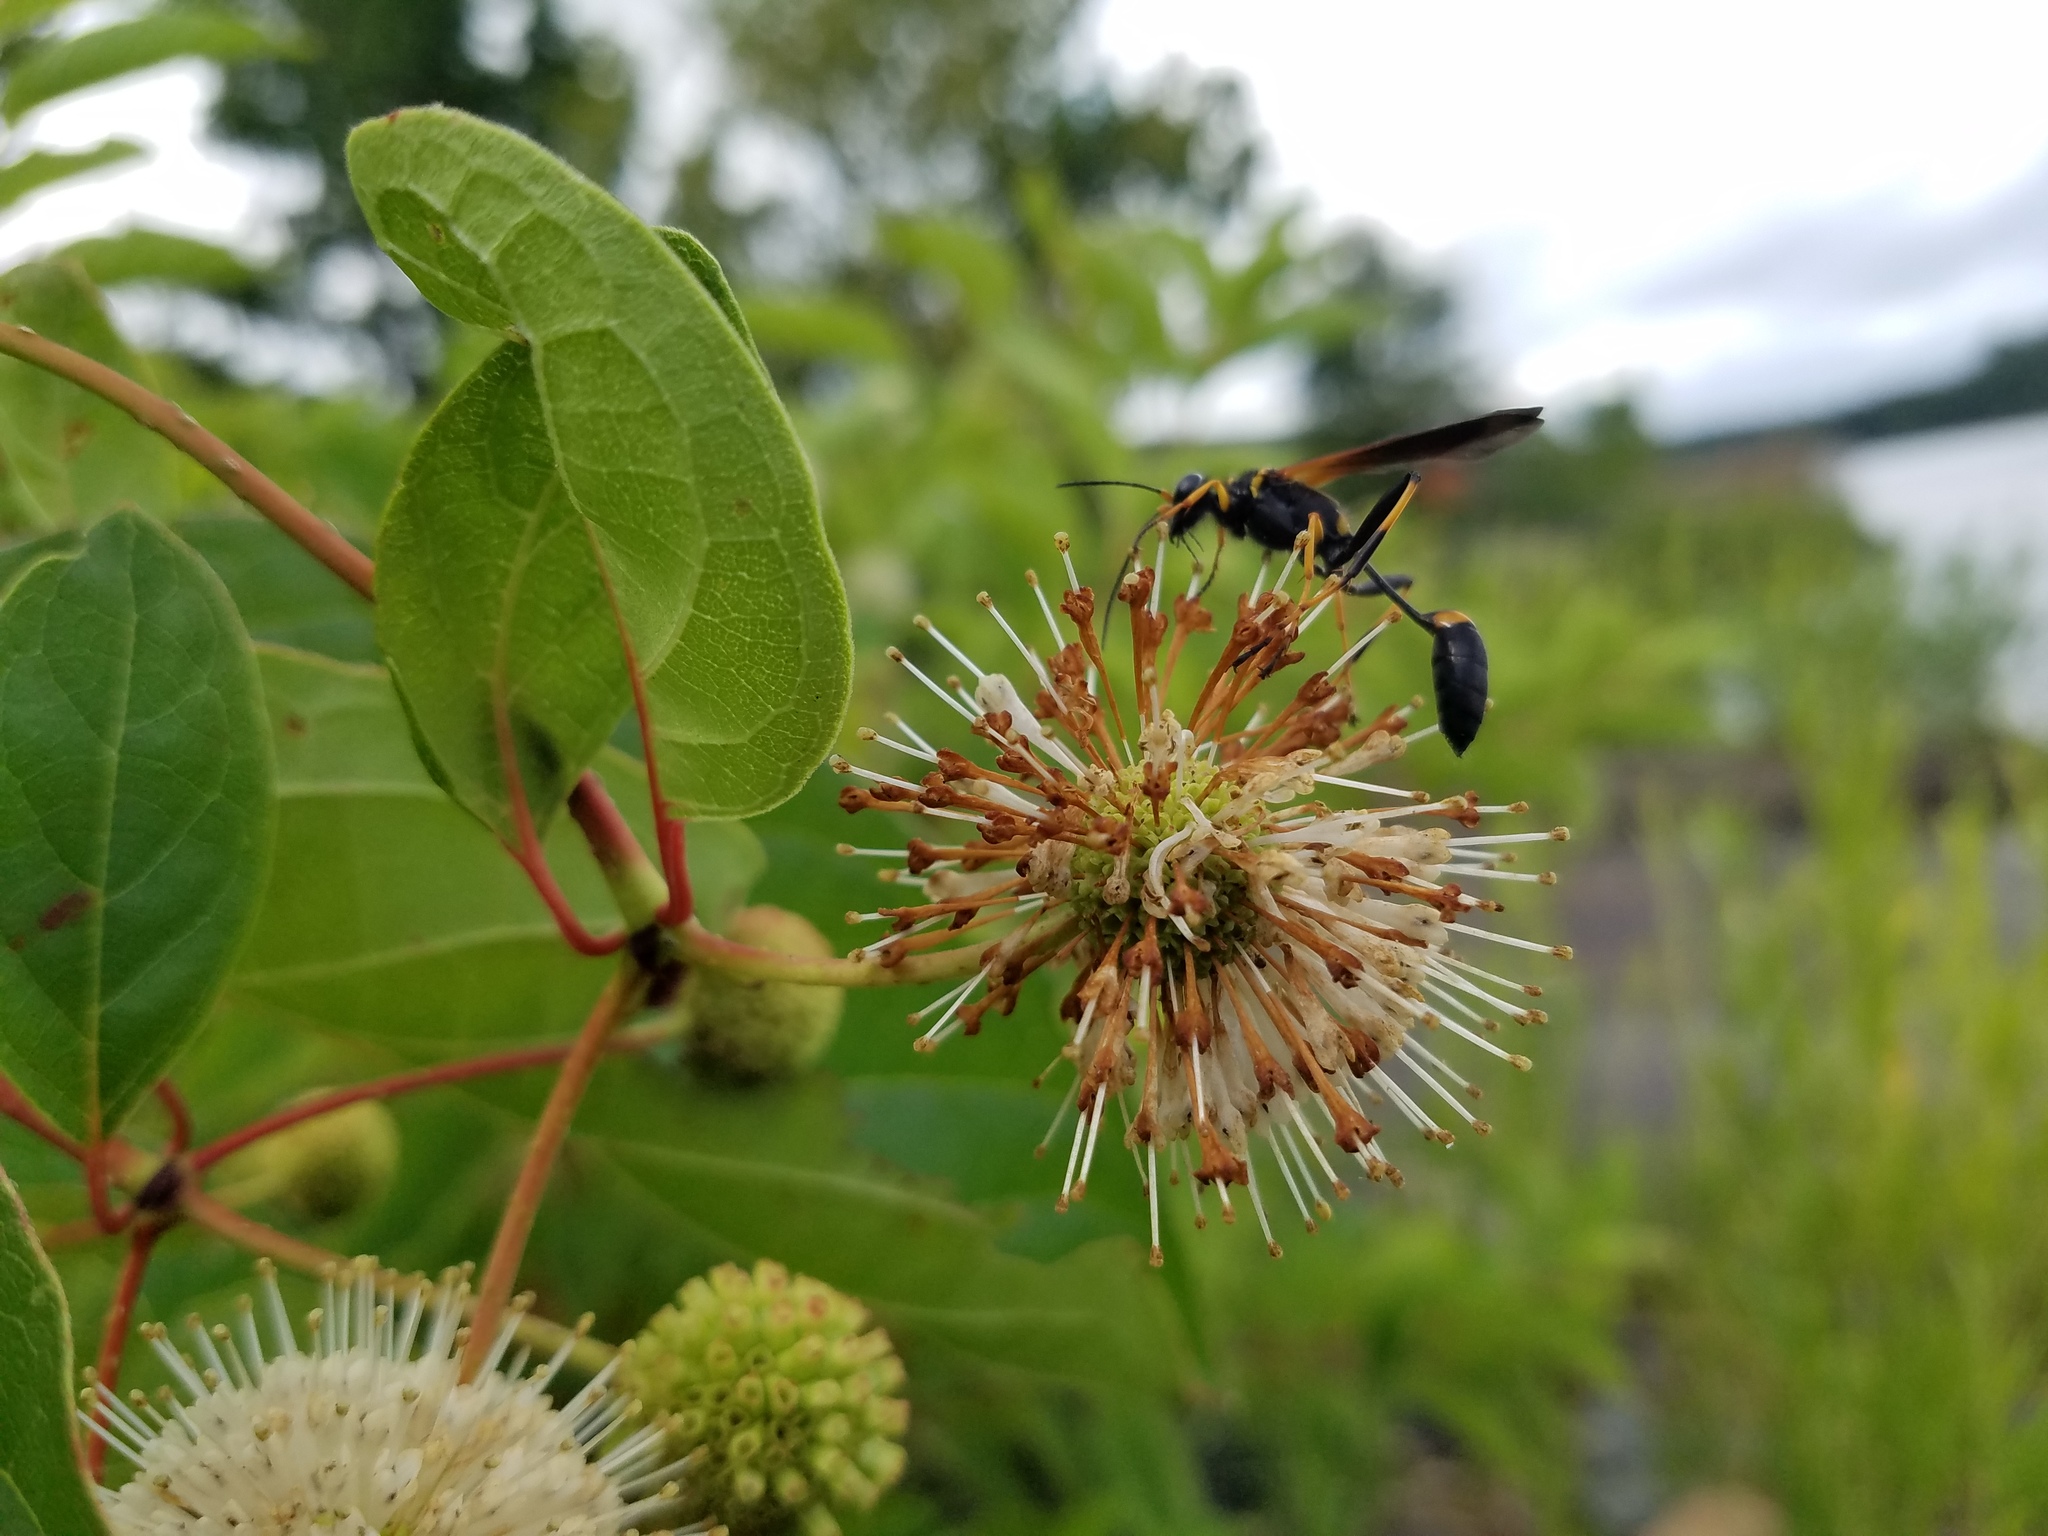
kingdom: Animalia
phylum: Arthropoda
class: Insecta
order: Hymenoptera
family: Sphecidae
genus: Sceliphron
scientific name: Sceliphron caementarium
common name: Mud dauber
